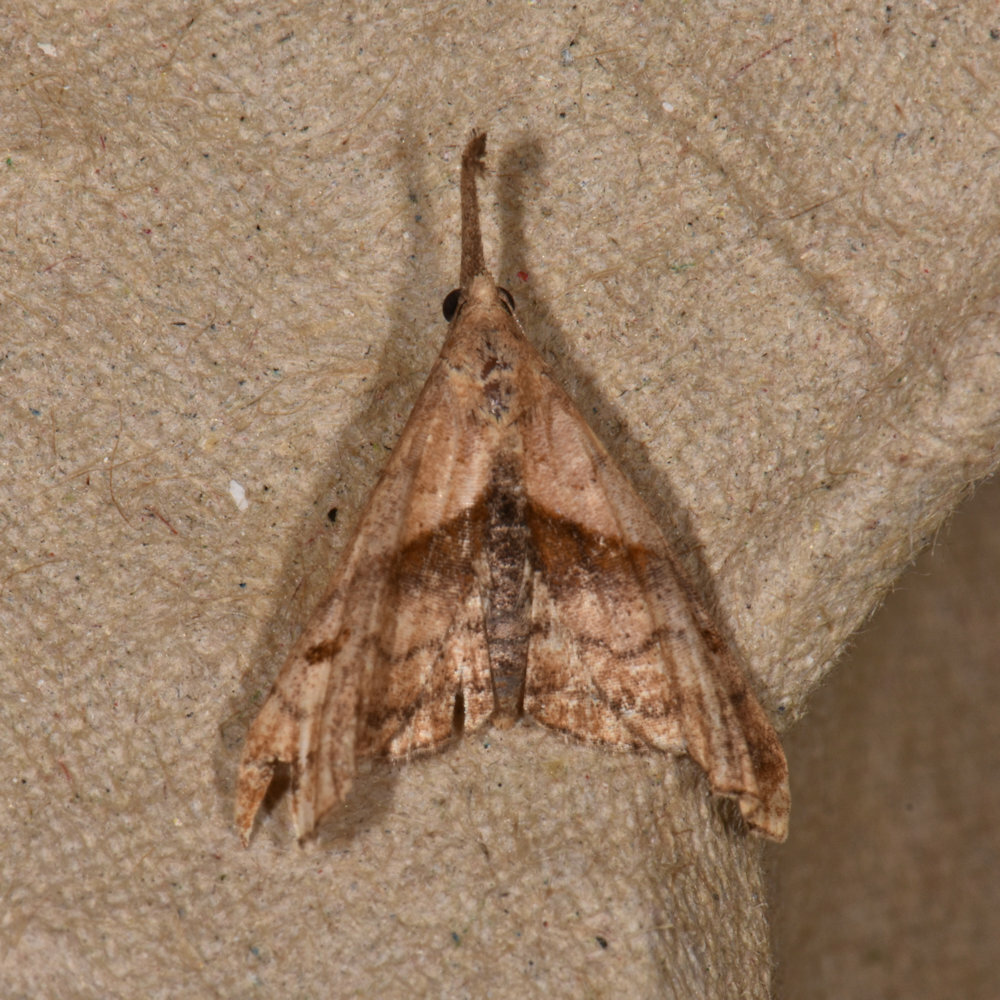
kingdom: Animalia
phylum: Arthropoda
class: Insecta
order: Lepidoptera
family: Erebidae
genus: Palthis
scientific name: Palthis asopialis
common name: Faint-spotted palthis moth
